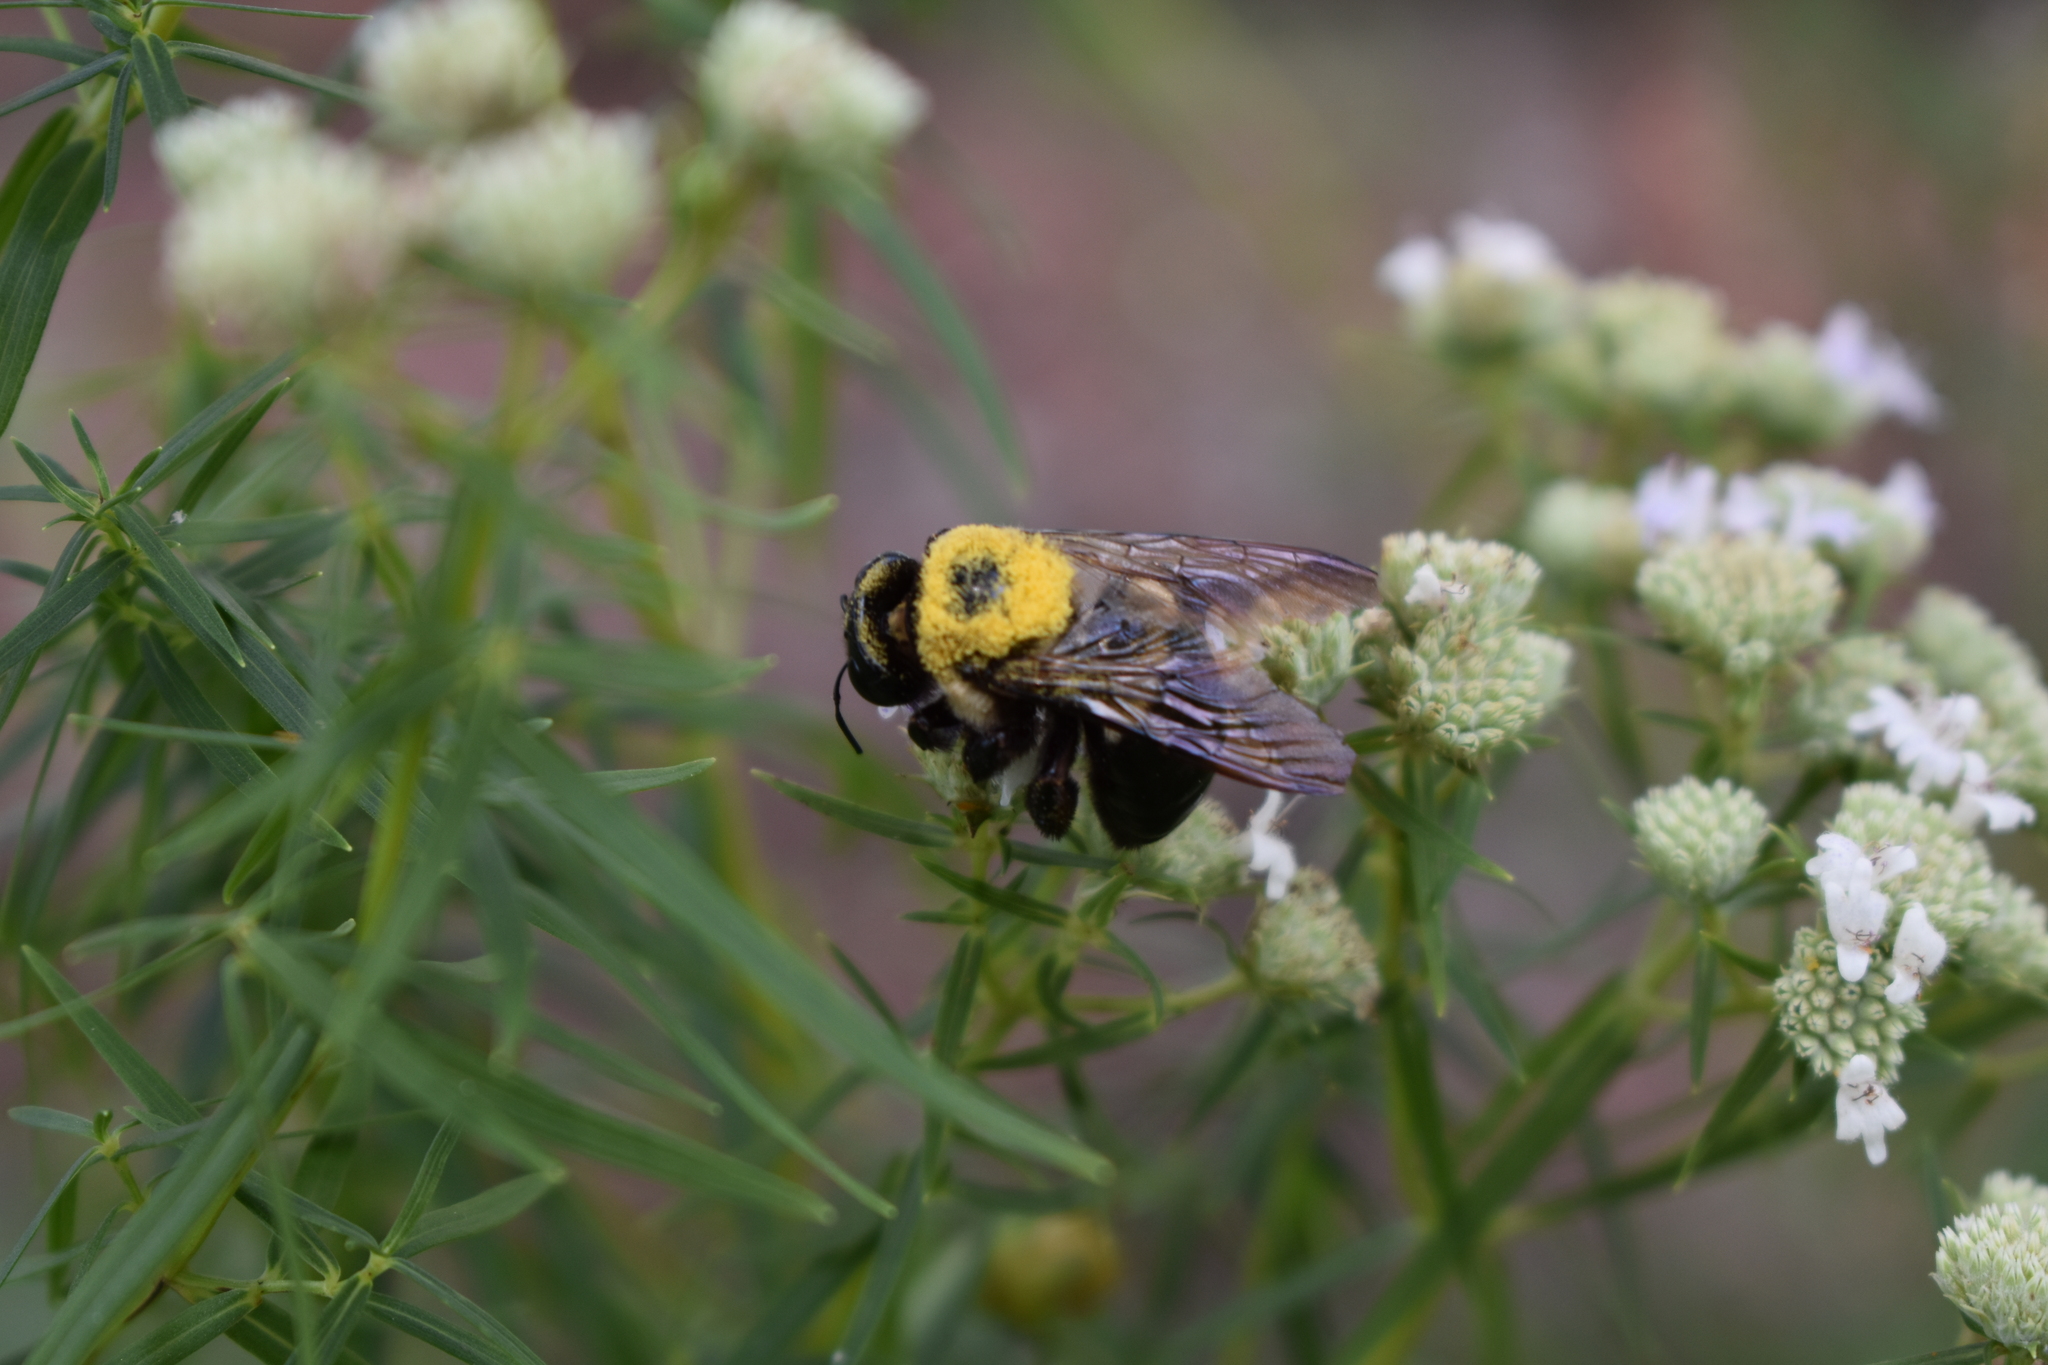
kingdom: Animalia
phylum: Arthropoda
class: Insecta
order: Hymenoptera
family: Apidae
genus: Xylocopa
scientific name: Xylocopa virginica
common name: Carpenter bee
